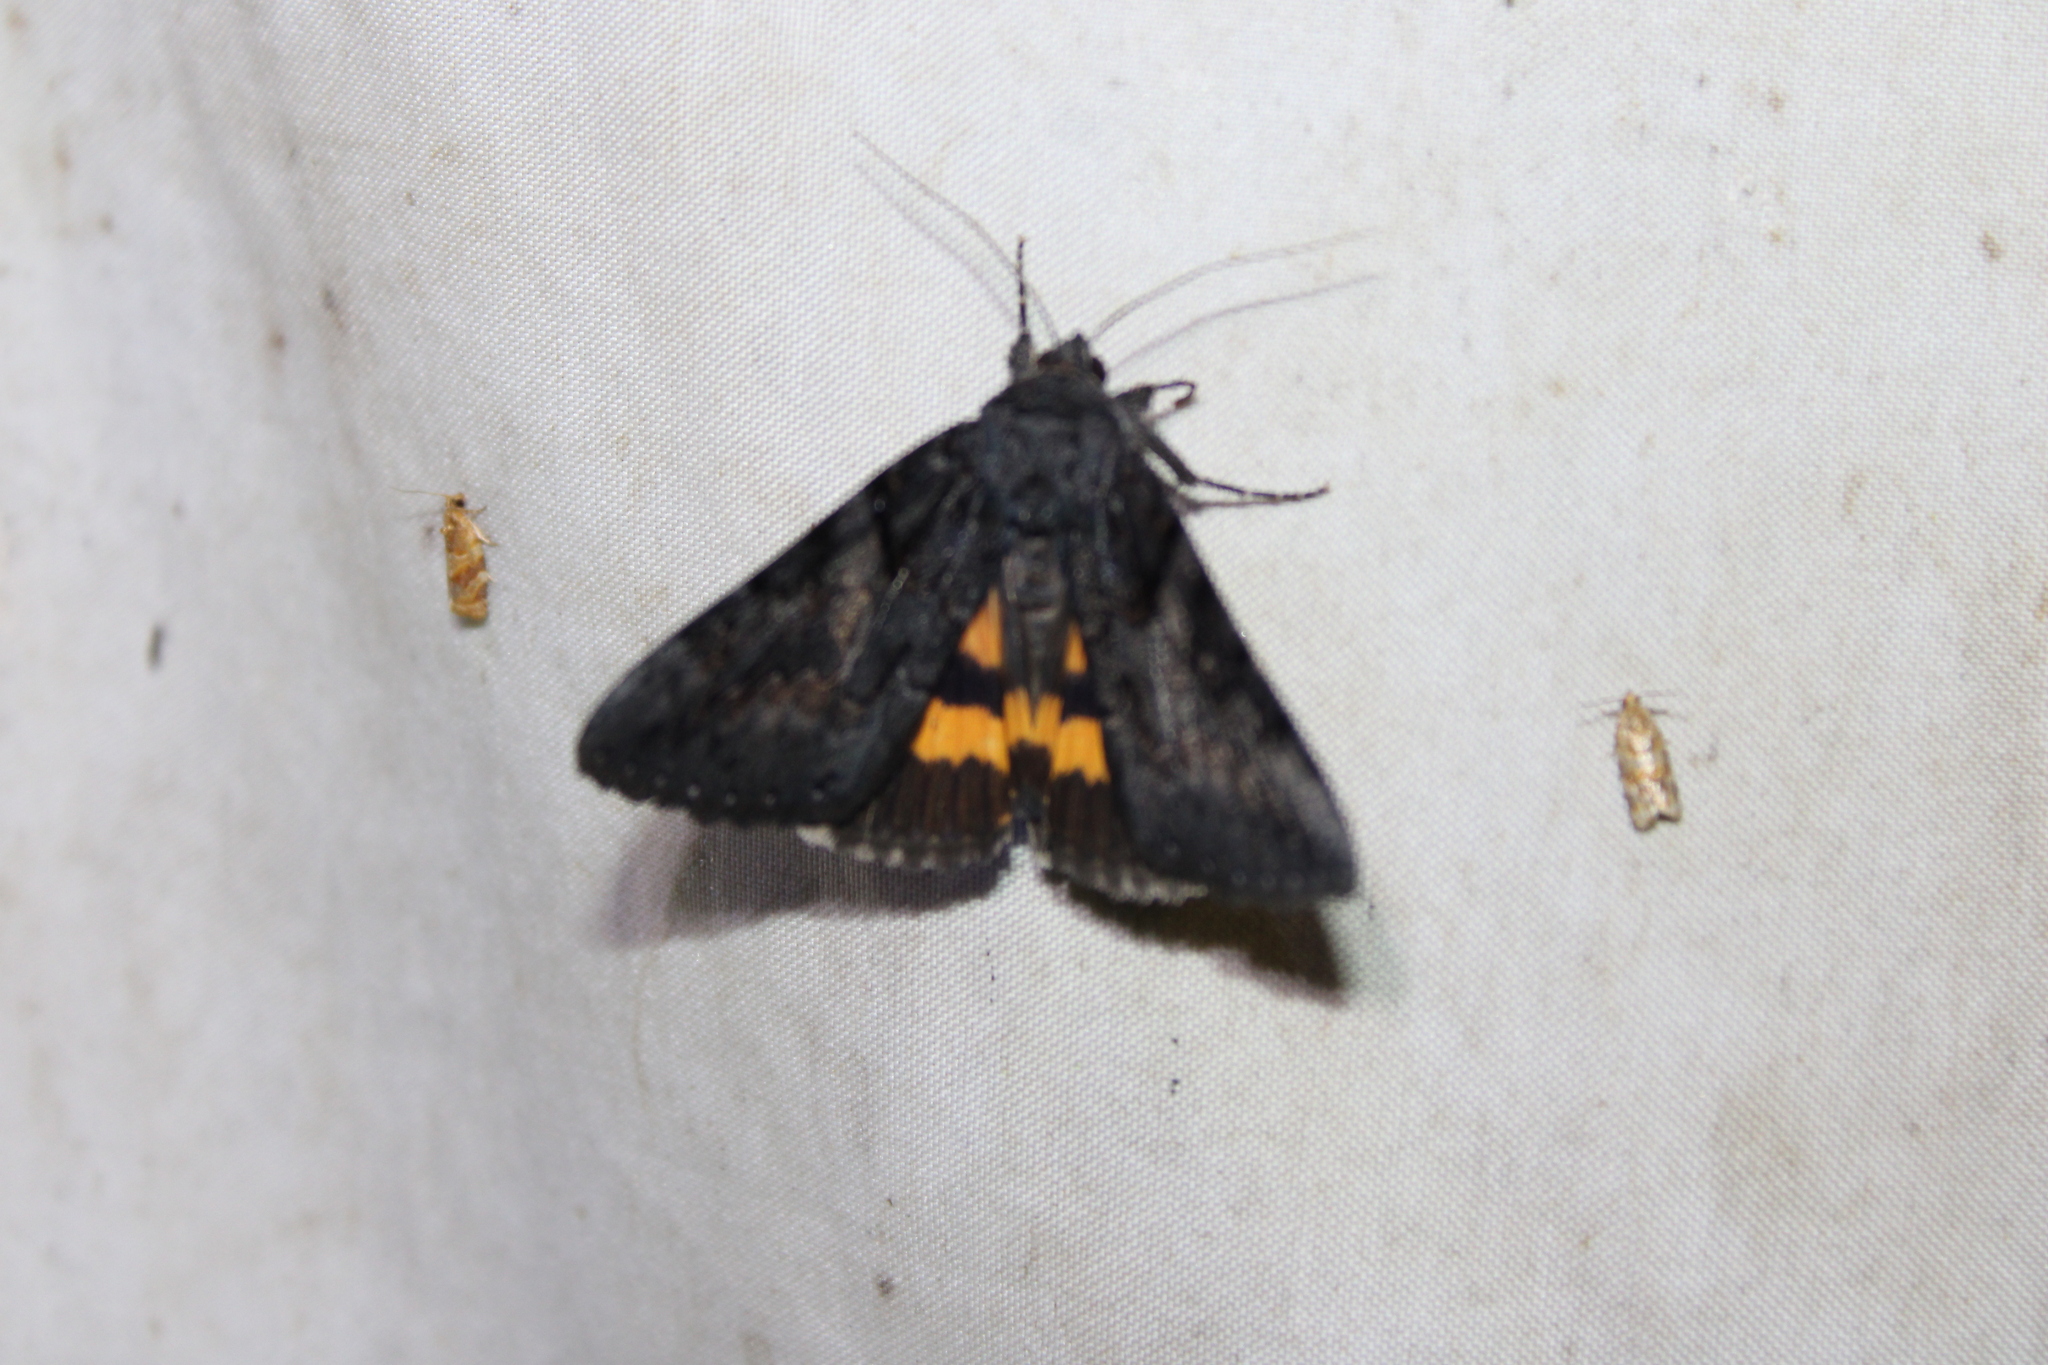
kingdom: Animalia
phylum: Arthropoda
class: Insecta
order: Lepidoptera
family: Erebidae
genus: Catocala
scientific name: Catocala antinympha
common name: Sweetfern underwing
